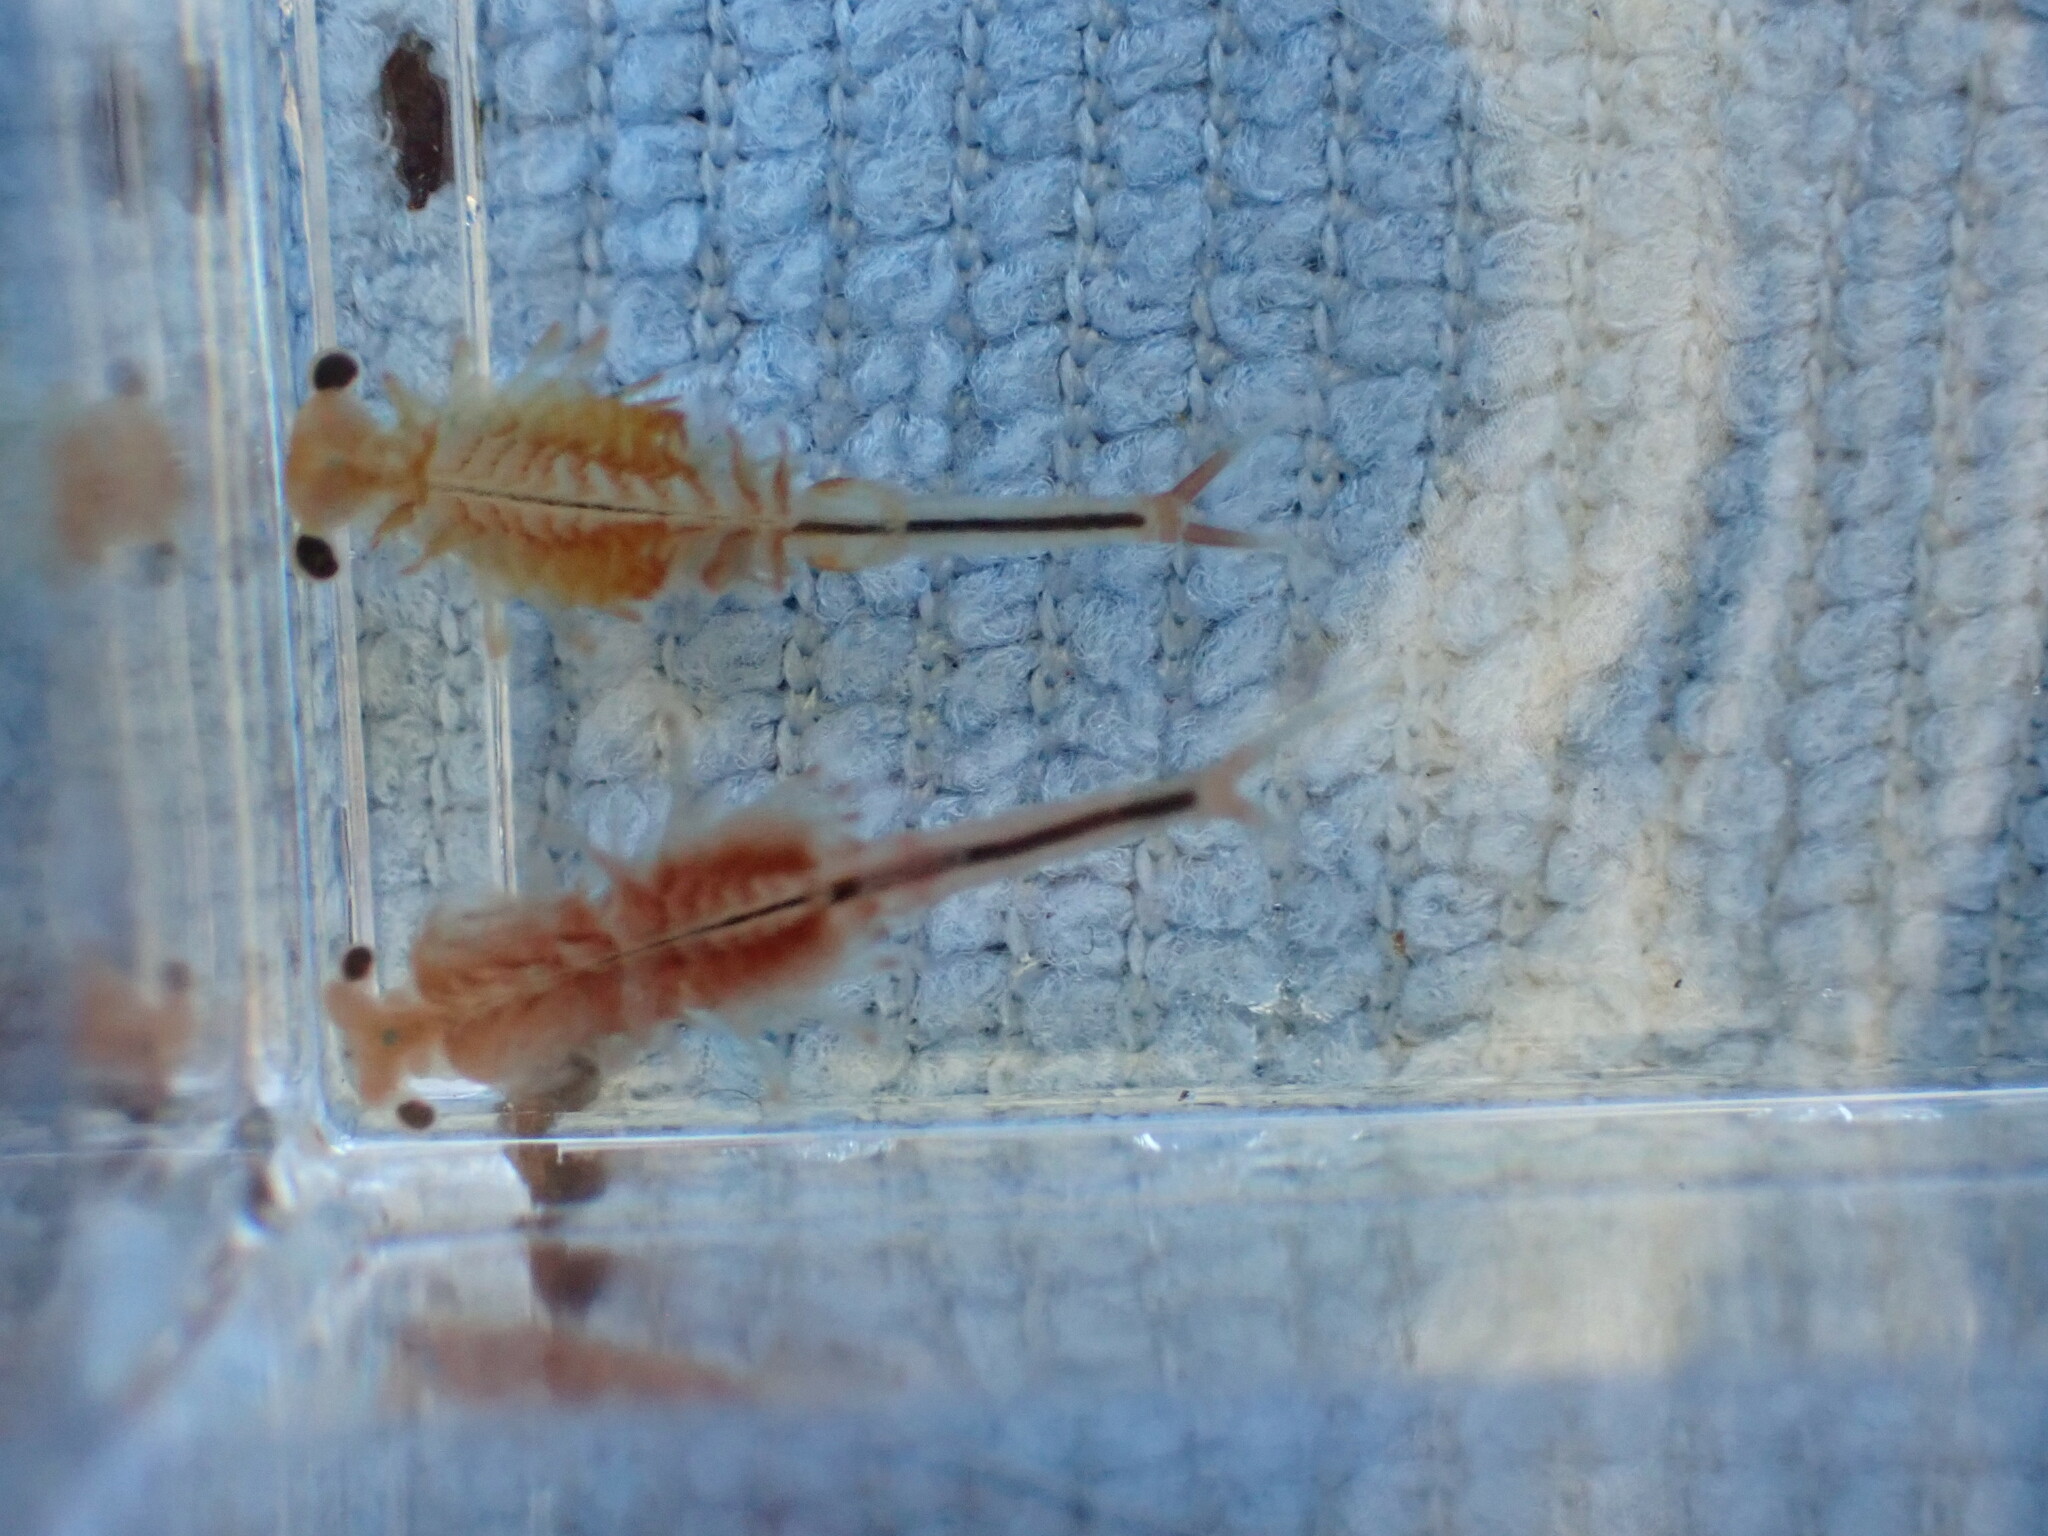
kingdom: Animalia
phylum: Arthropoda
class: Branchiopoda
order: Anostraca
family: Chirocephalidae
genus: Eubranchipus
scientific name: Eubranchipus oregonus
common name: Oregon fairy shrimp
